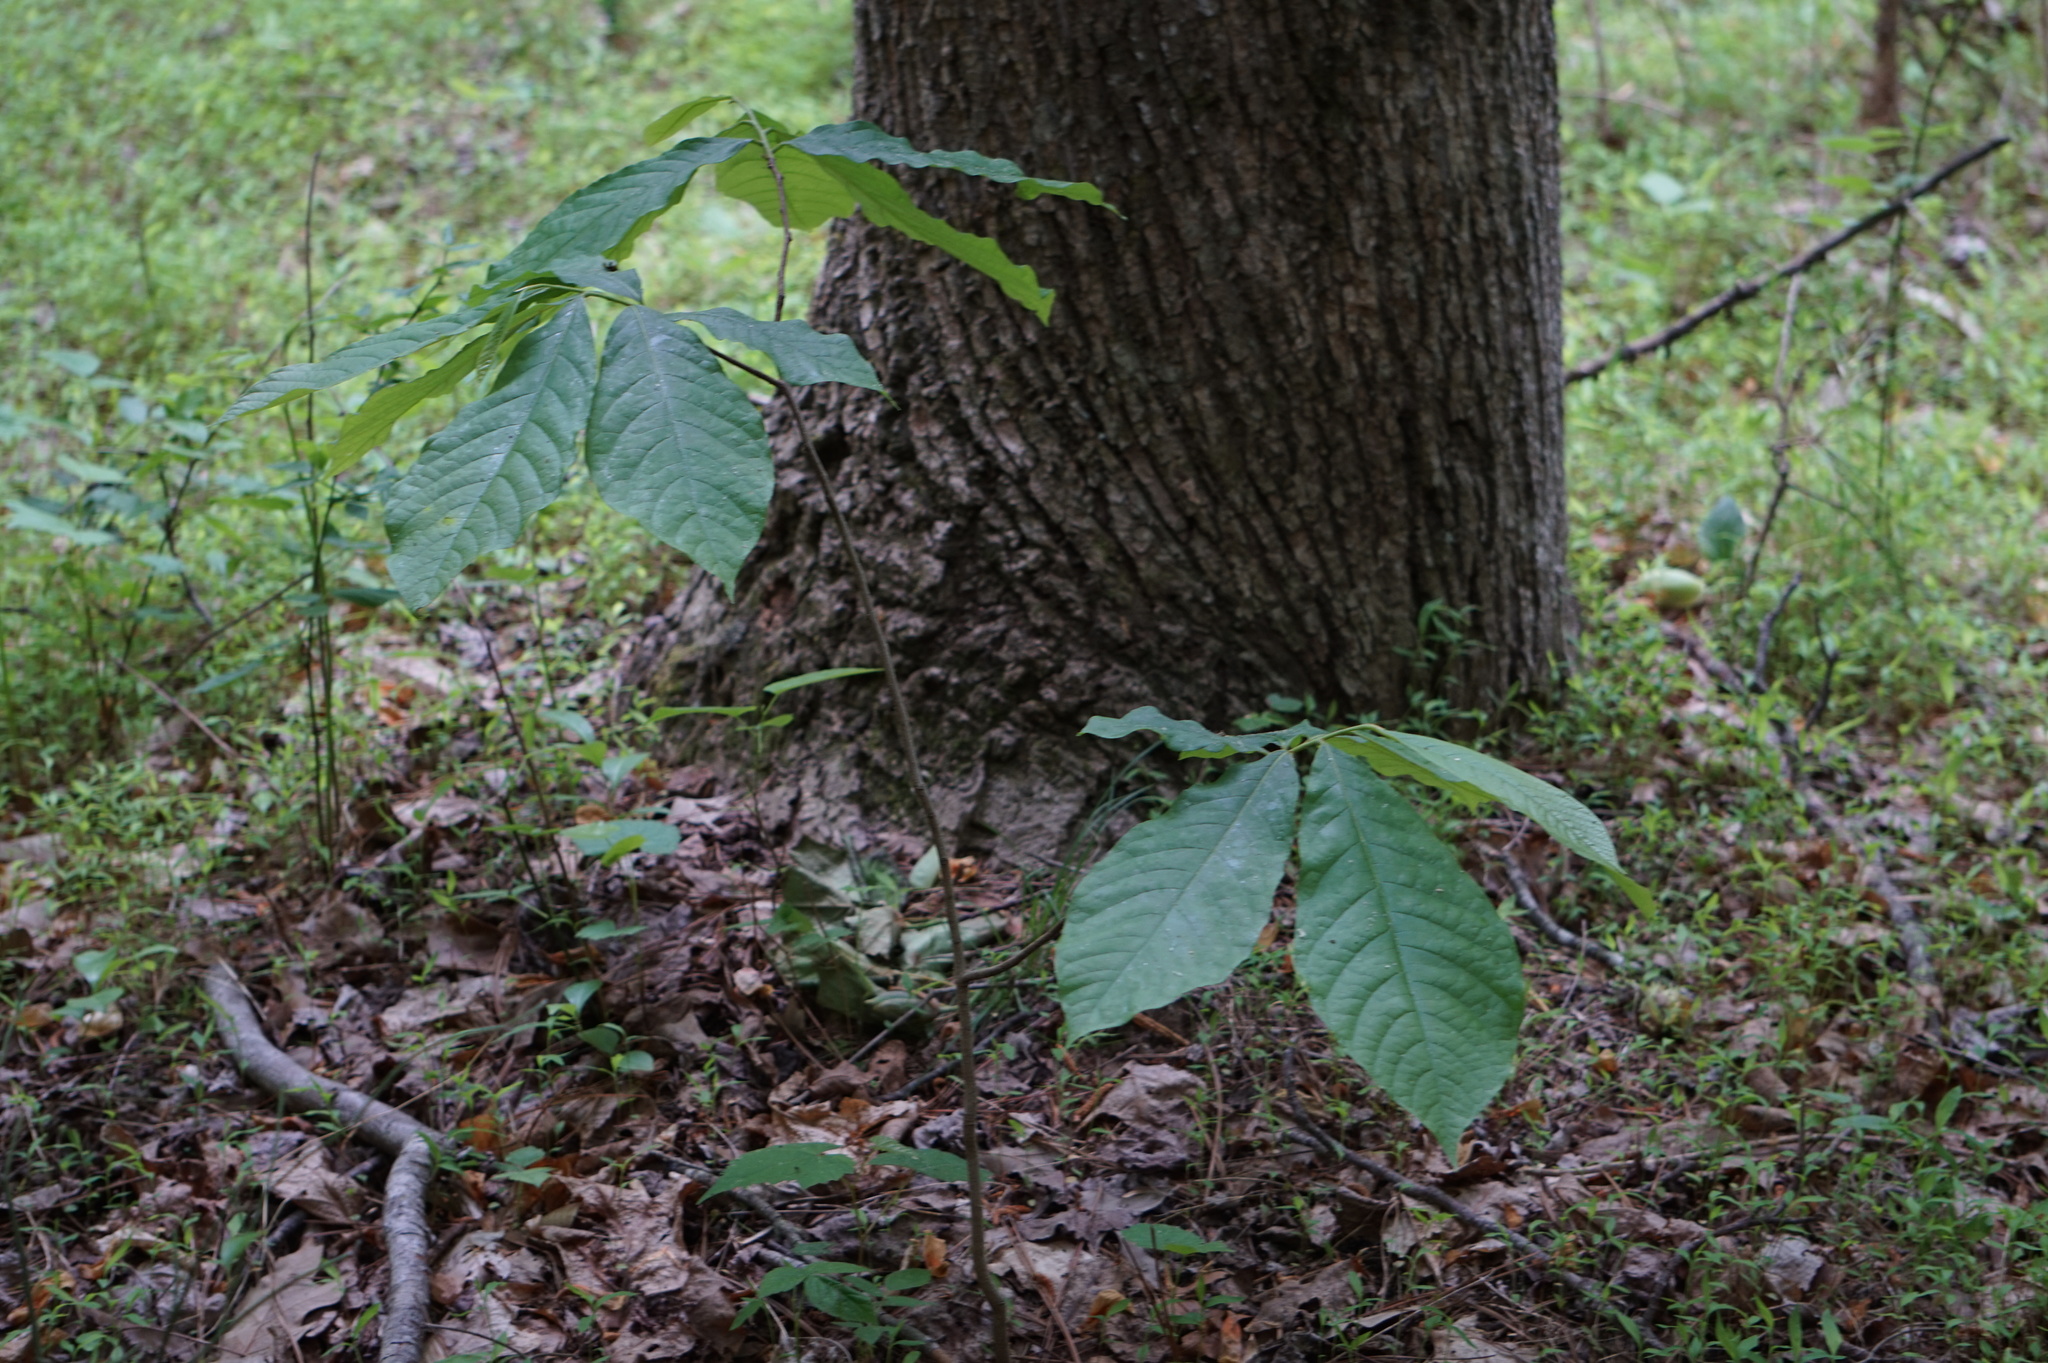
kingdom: Plantae
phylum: Tracheophyta
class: Magnoliopsida
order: Magnoliales
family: Annonaceae
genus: Asimina
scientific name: Asimina triloba
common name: Dog-banana
